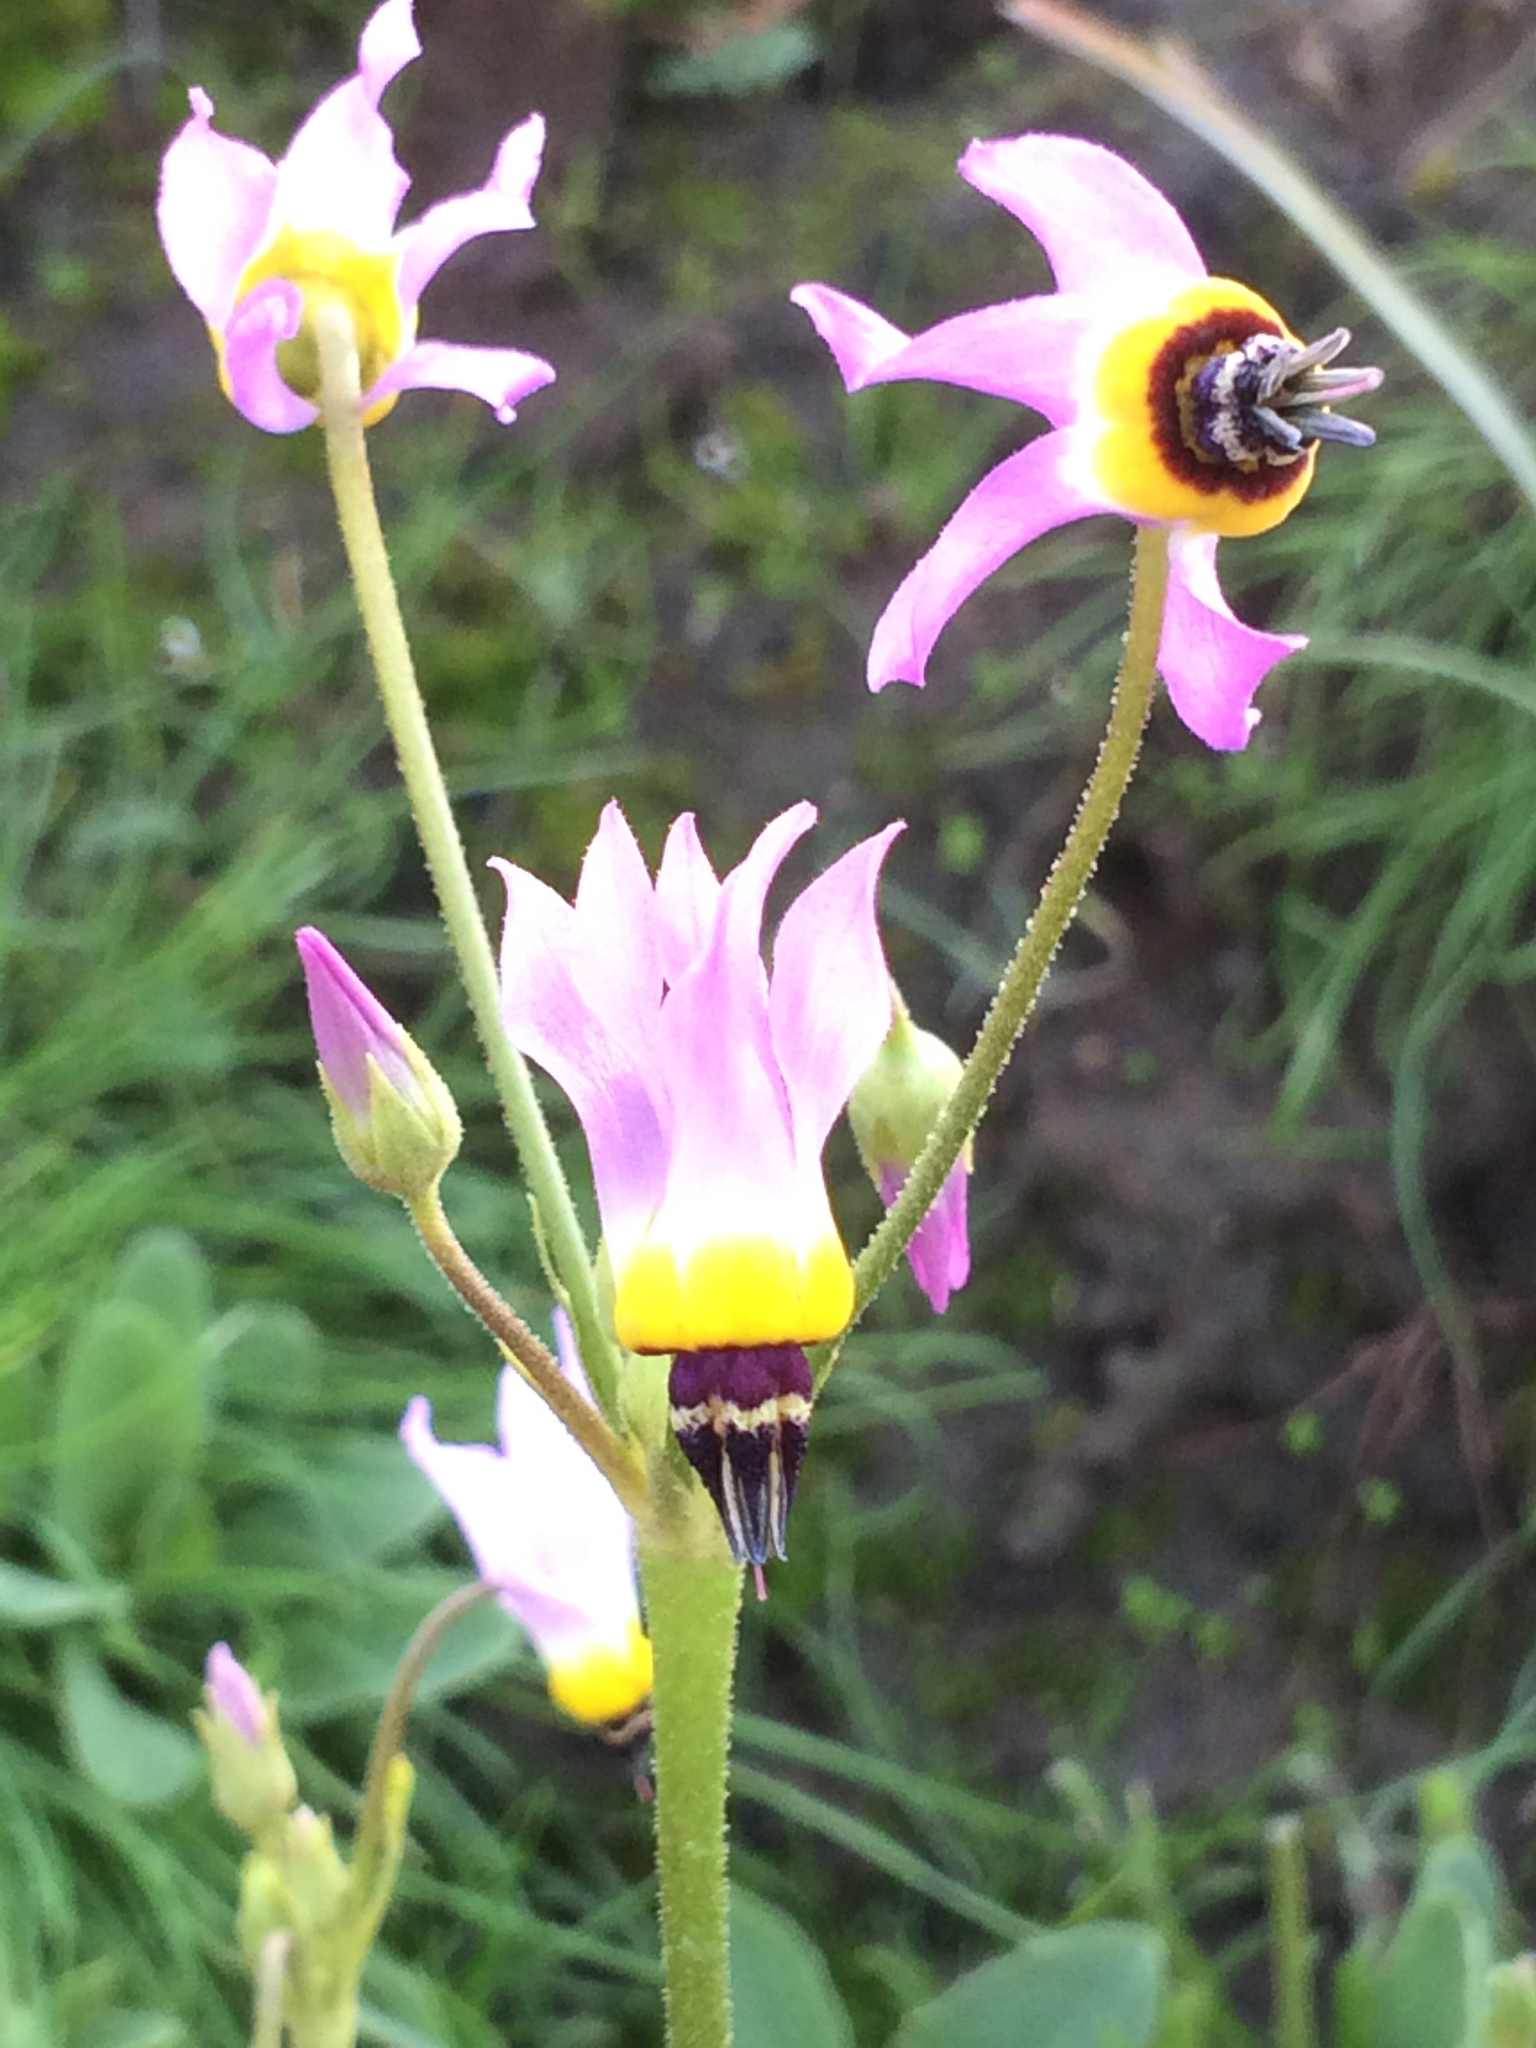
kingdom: Plantae
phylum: Tracheophyta
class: Magnoliopsida
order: Ericales
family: Primulaceae
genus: Dodecatheon
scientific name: Dodecatheon clevelandii
